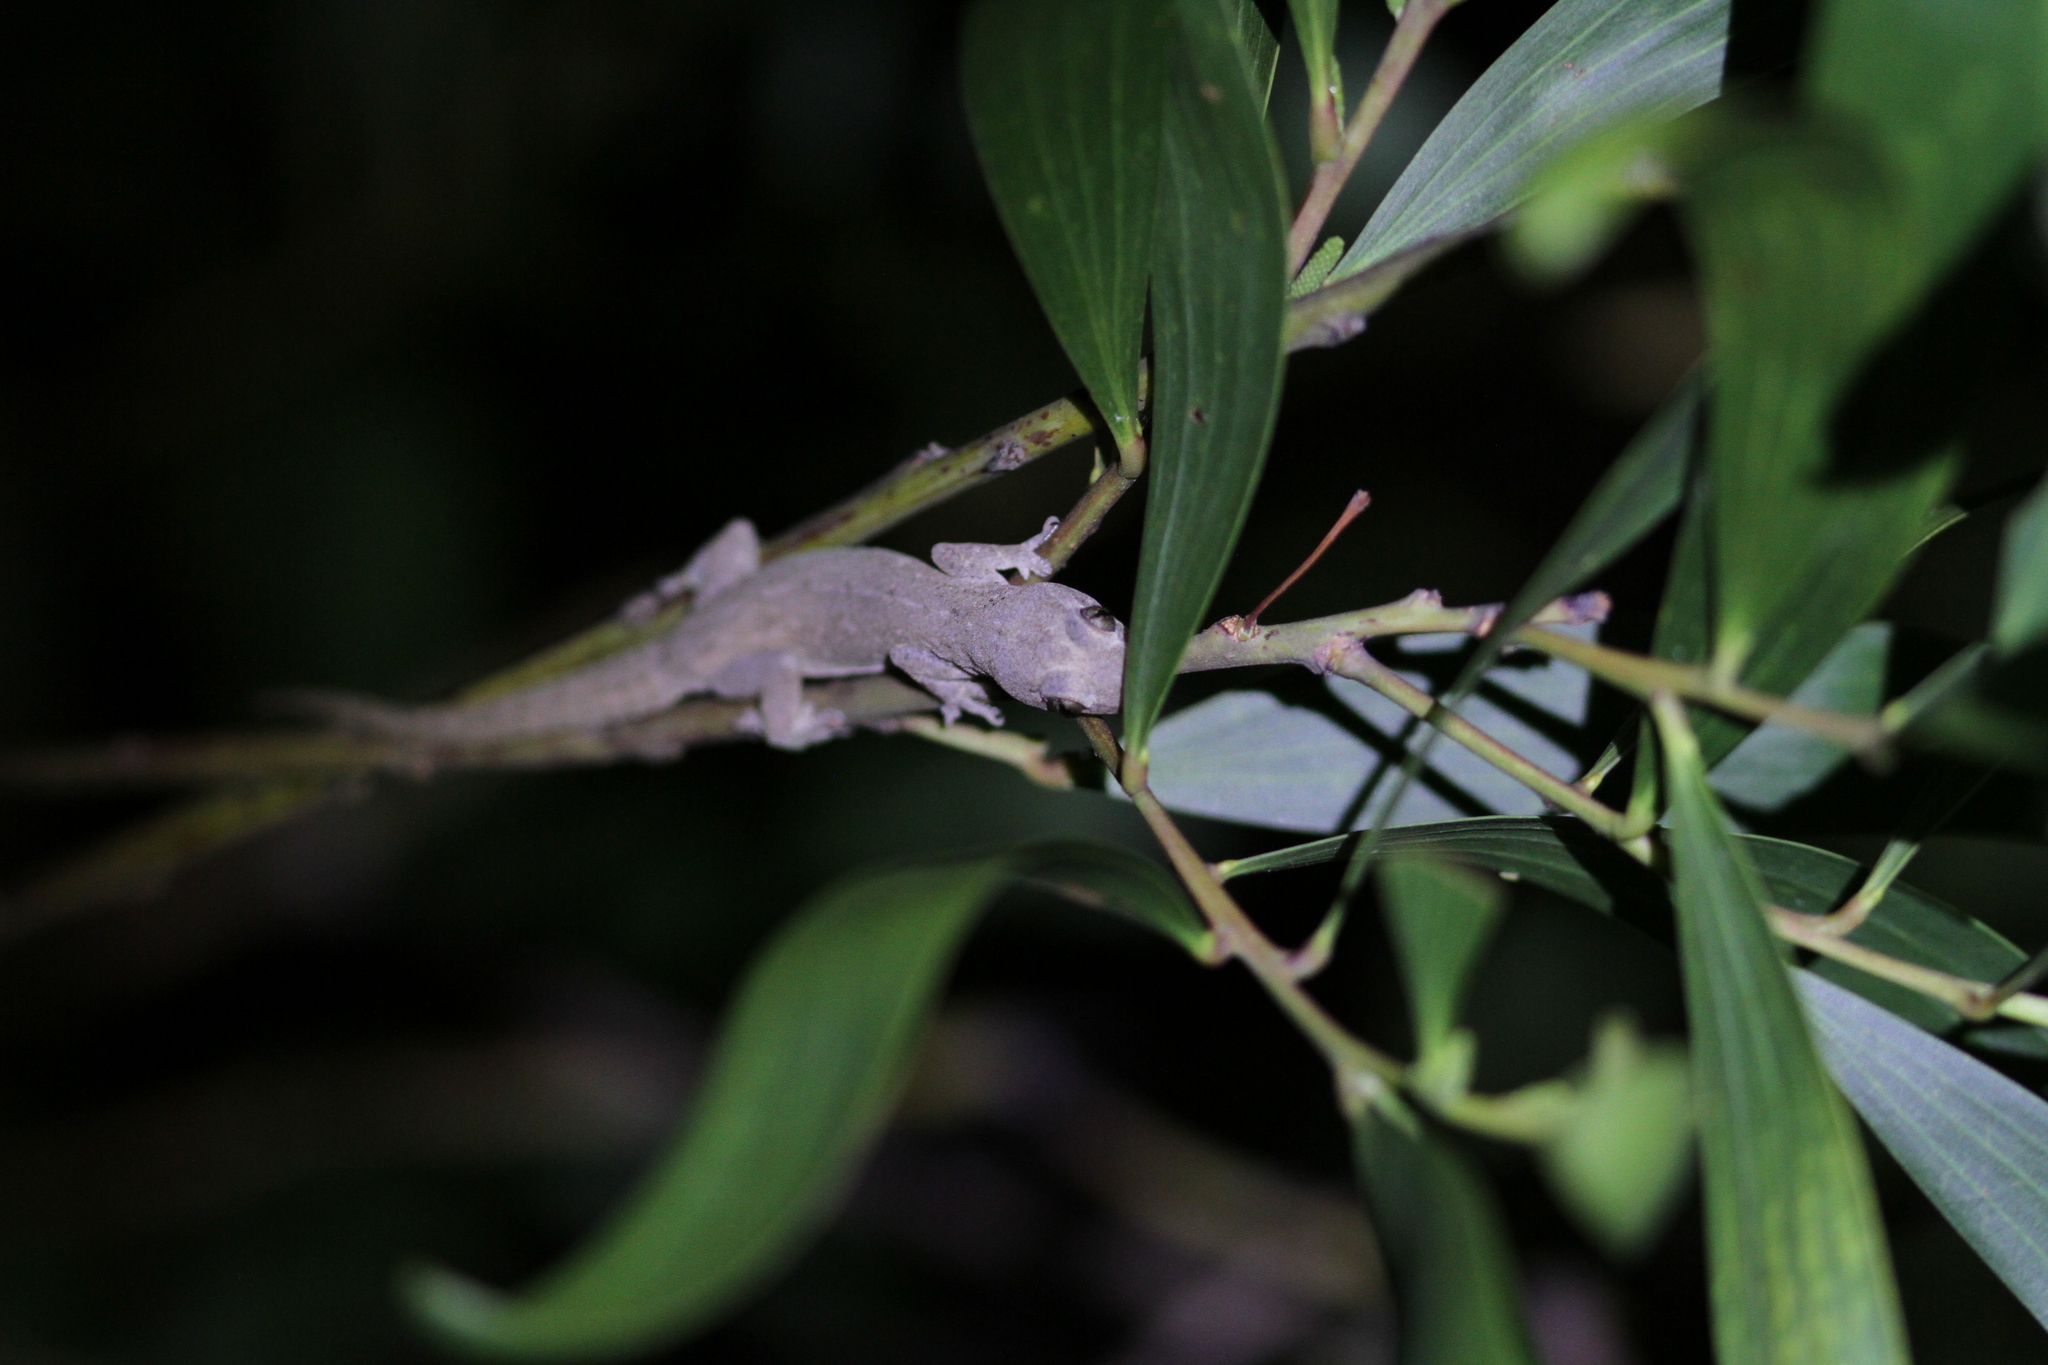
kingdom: Animalia
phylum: Chordata
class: Squamata
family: Gekkonidae
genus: Hemidactylus
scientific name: Hemidactylus frenatus
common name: Common house gecko
